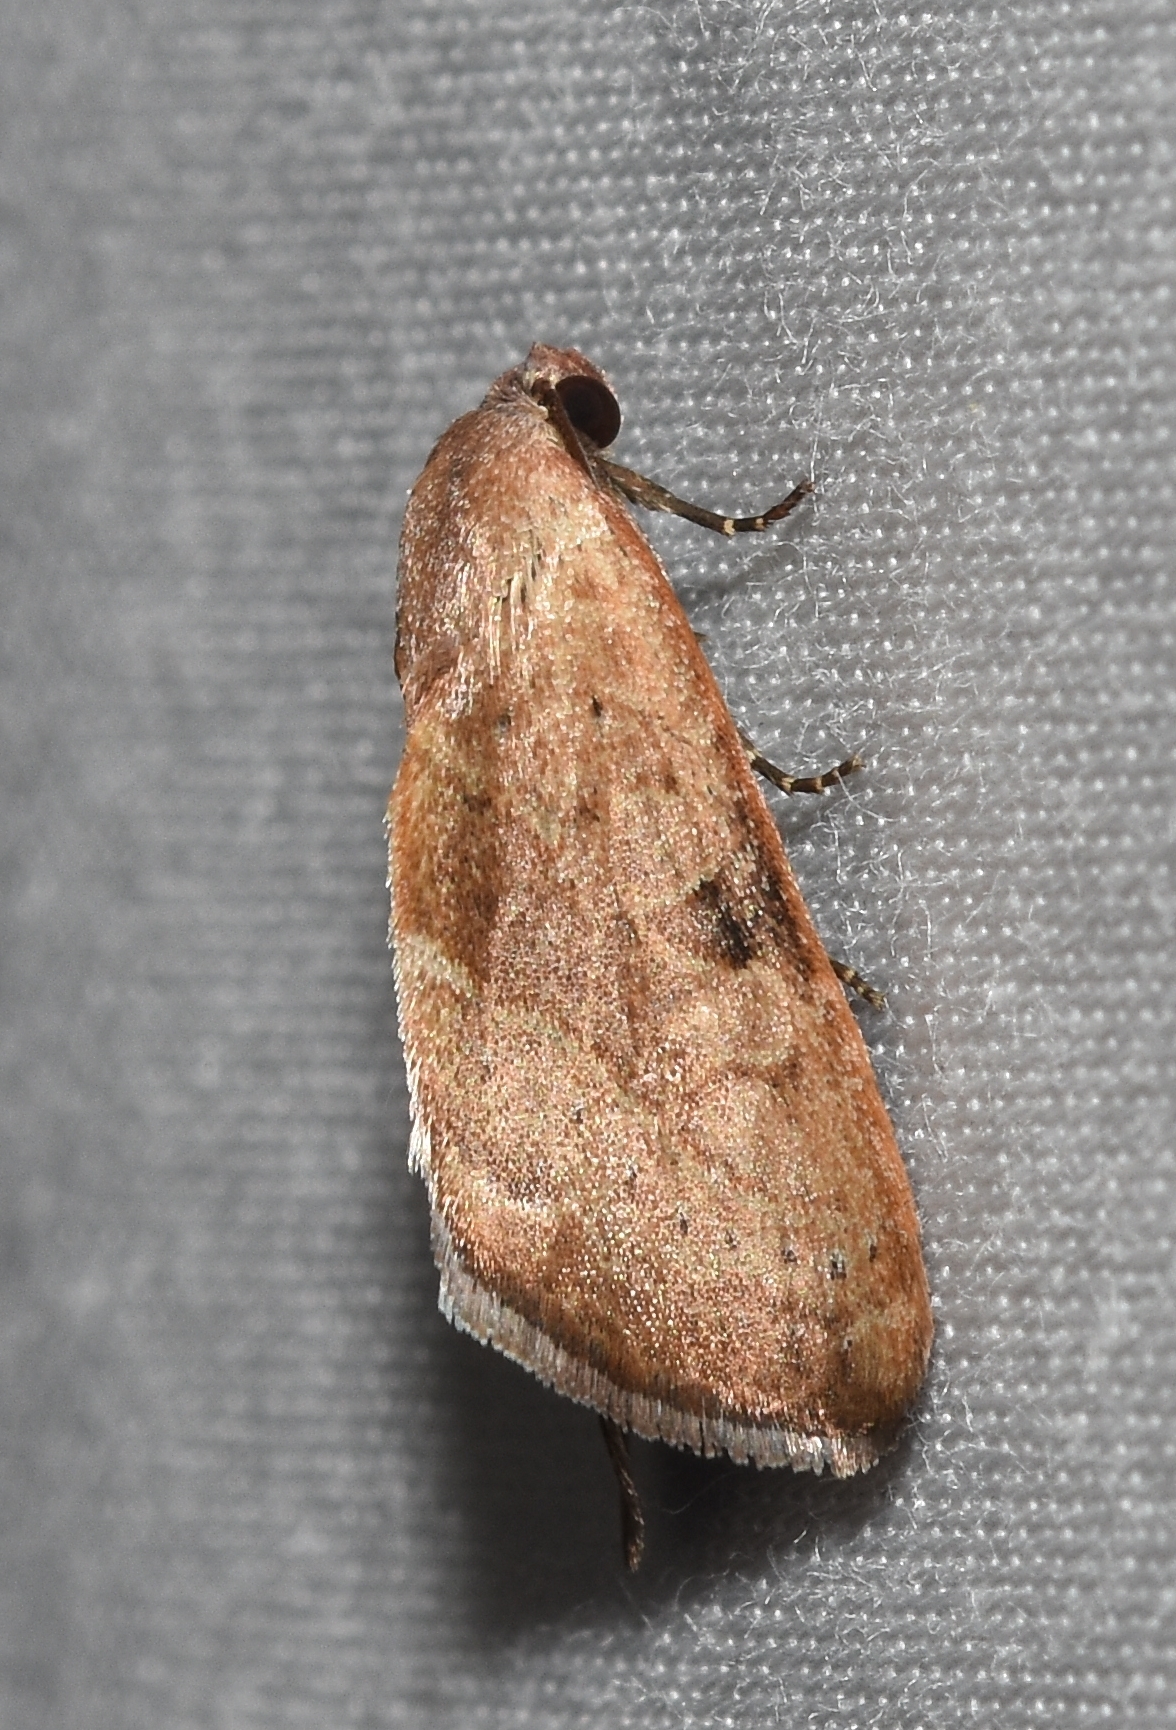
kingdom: Animalia
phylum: Arthropoda
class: Insecta
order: Lepidoptera
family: Noctuidae
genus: Galgula
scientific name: Galgula partita
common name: Wedgeling
